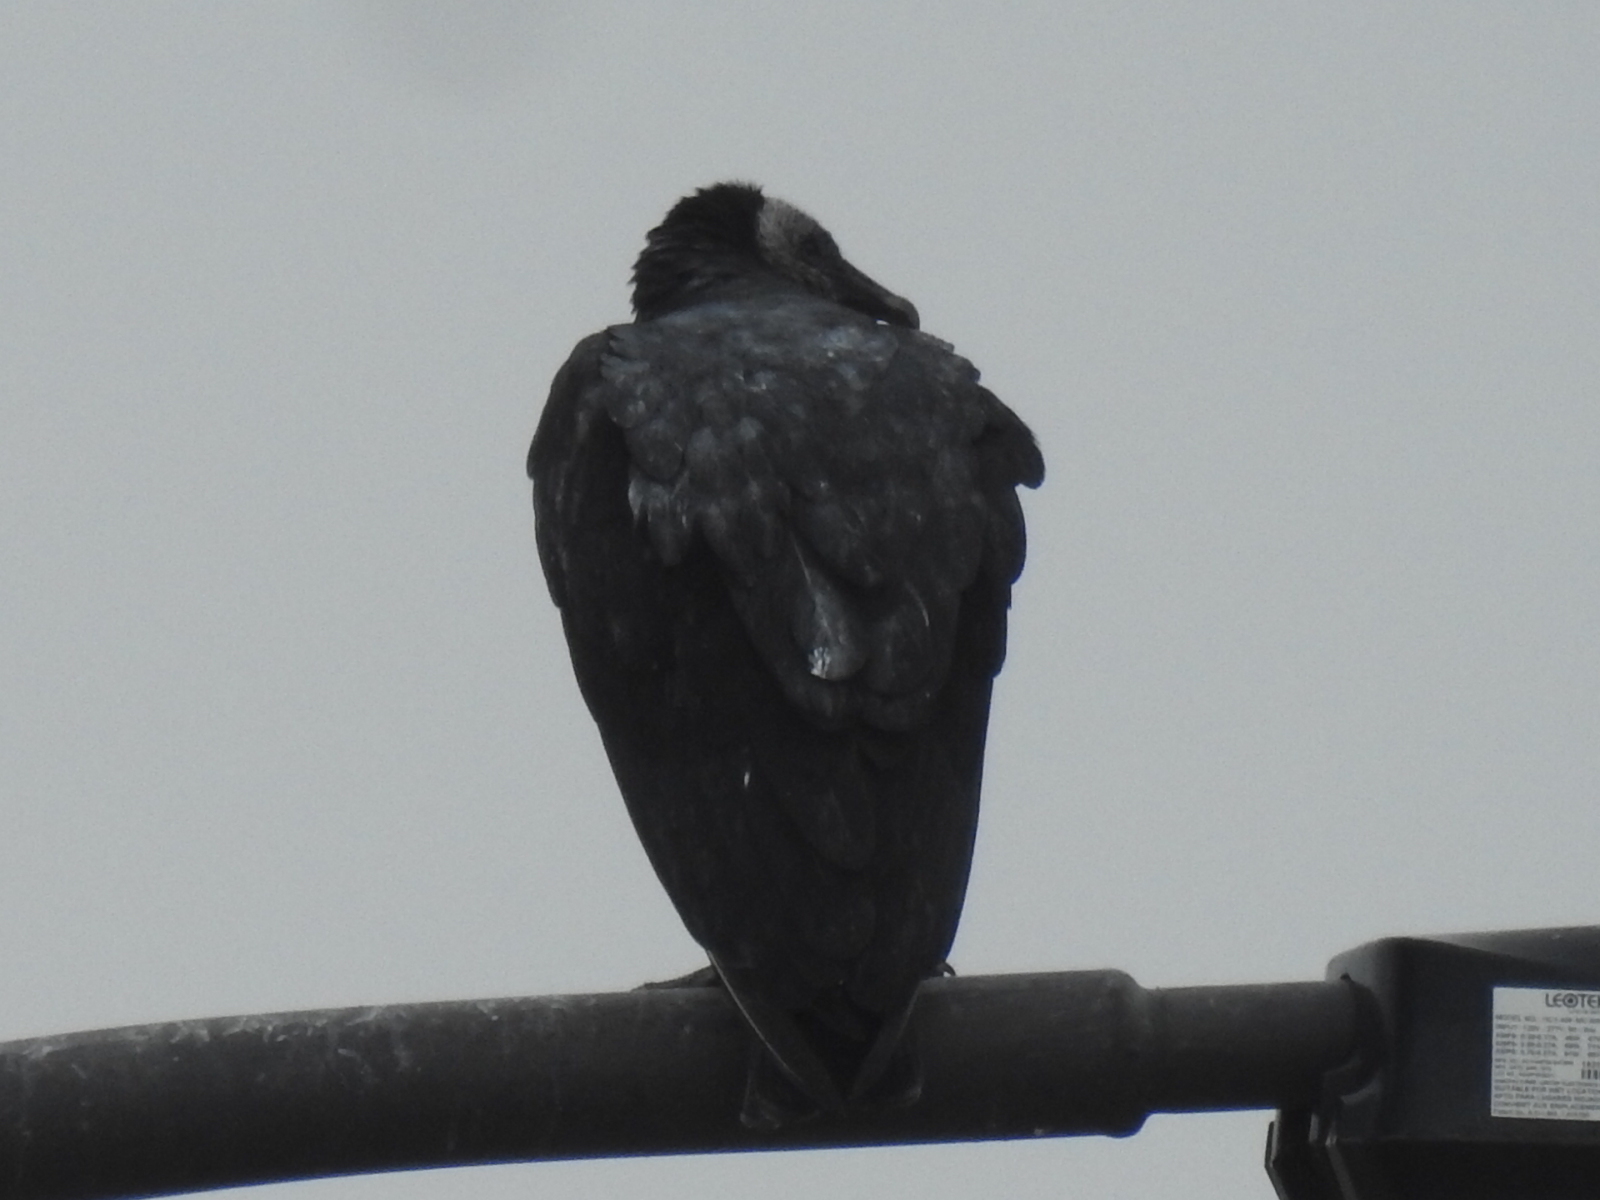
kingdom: Animalia
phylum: Chordata
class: Aves
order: Accipitriformes
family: Cathartidae
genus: Coragyps
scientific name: Coragyps atratus
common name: Black vulture
